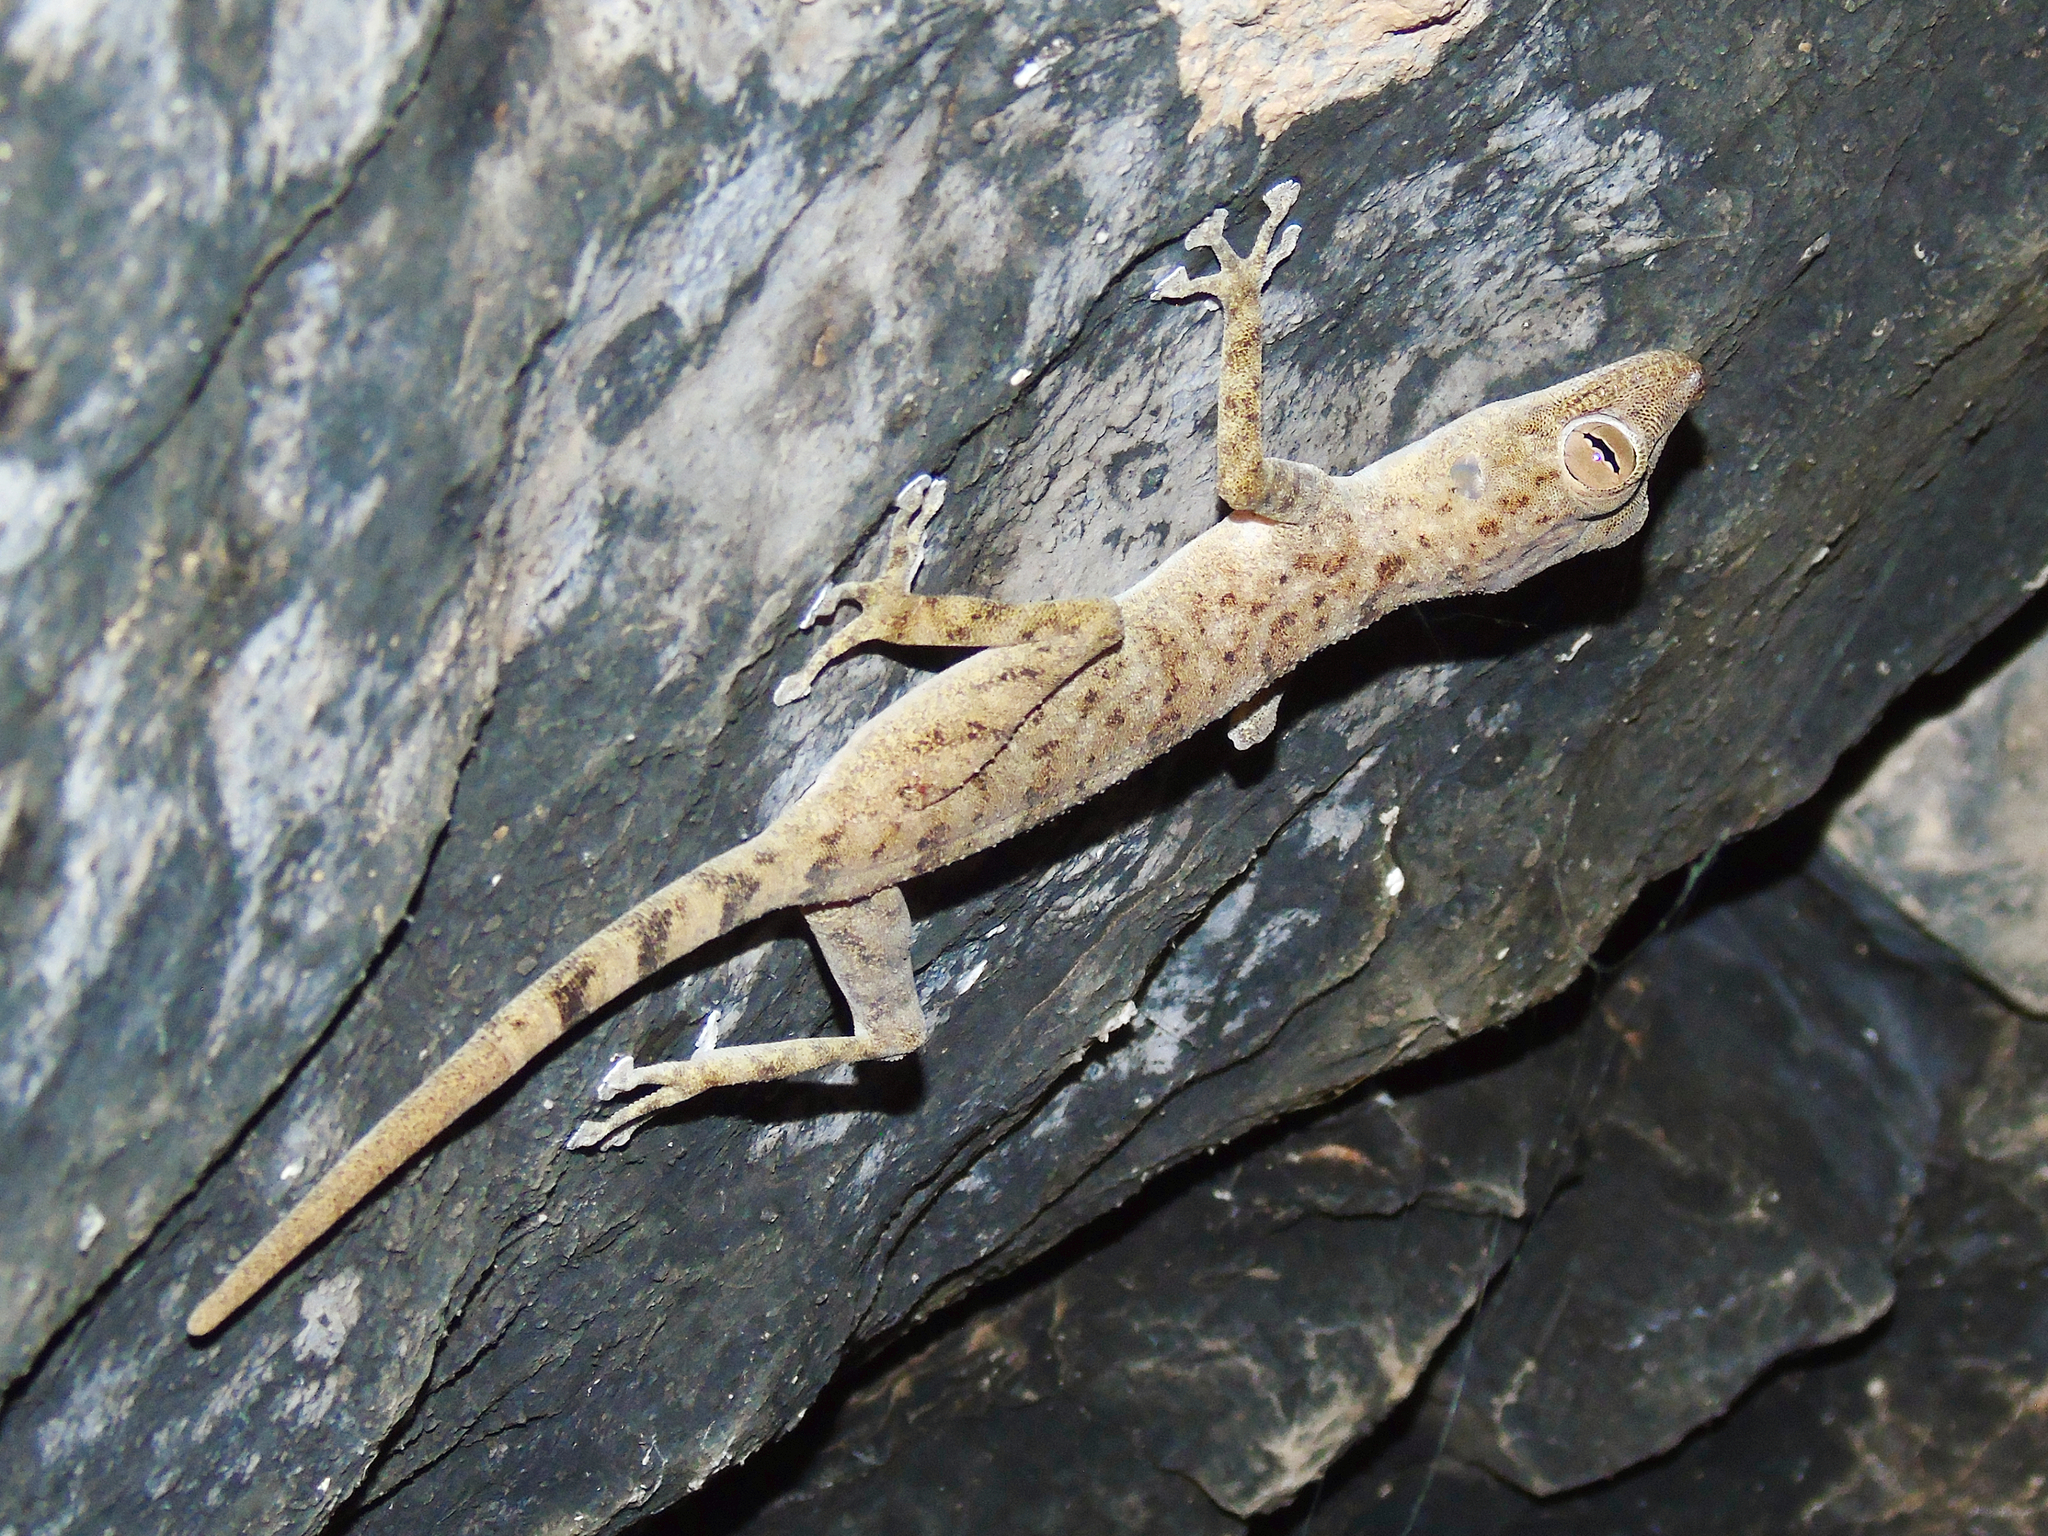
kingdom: Animalia
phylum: Chordata
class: Squamata
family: Phyllodactylidae
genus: Ptyodactylus
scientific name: Ptyodactylus orlovi
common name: Orlov's fan-footed gecko
